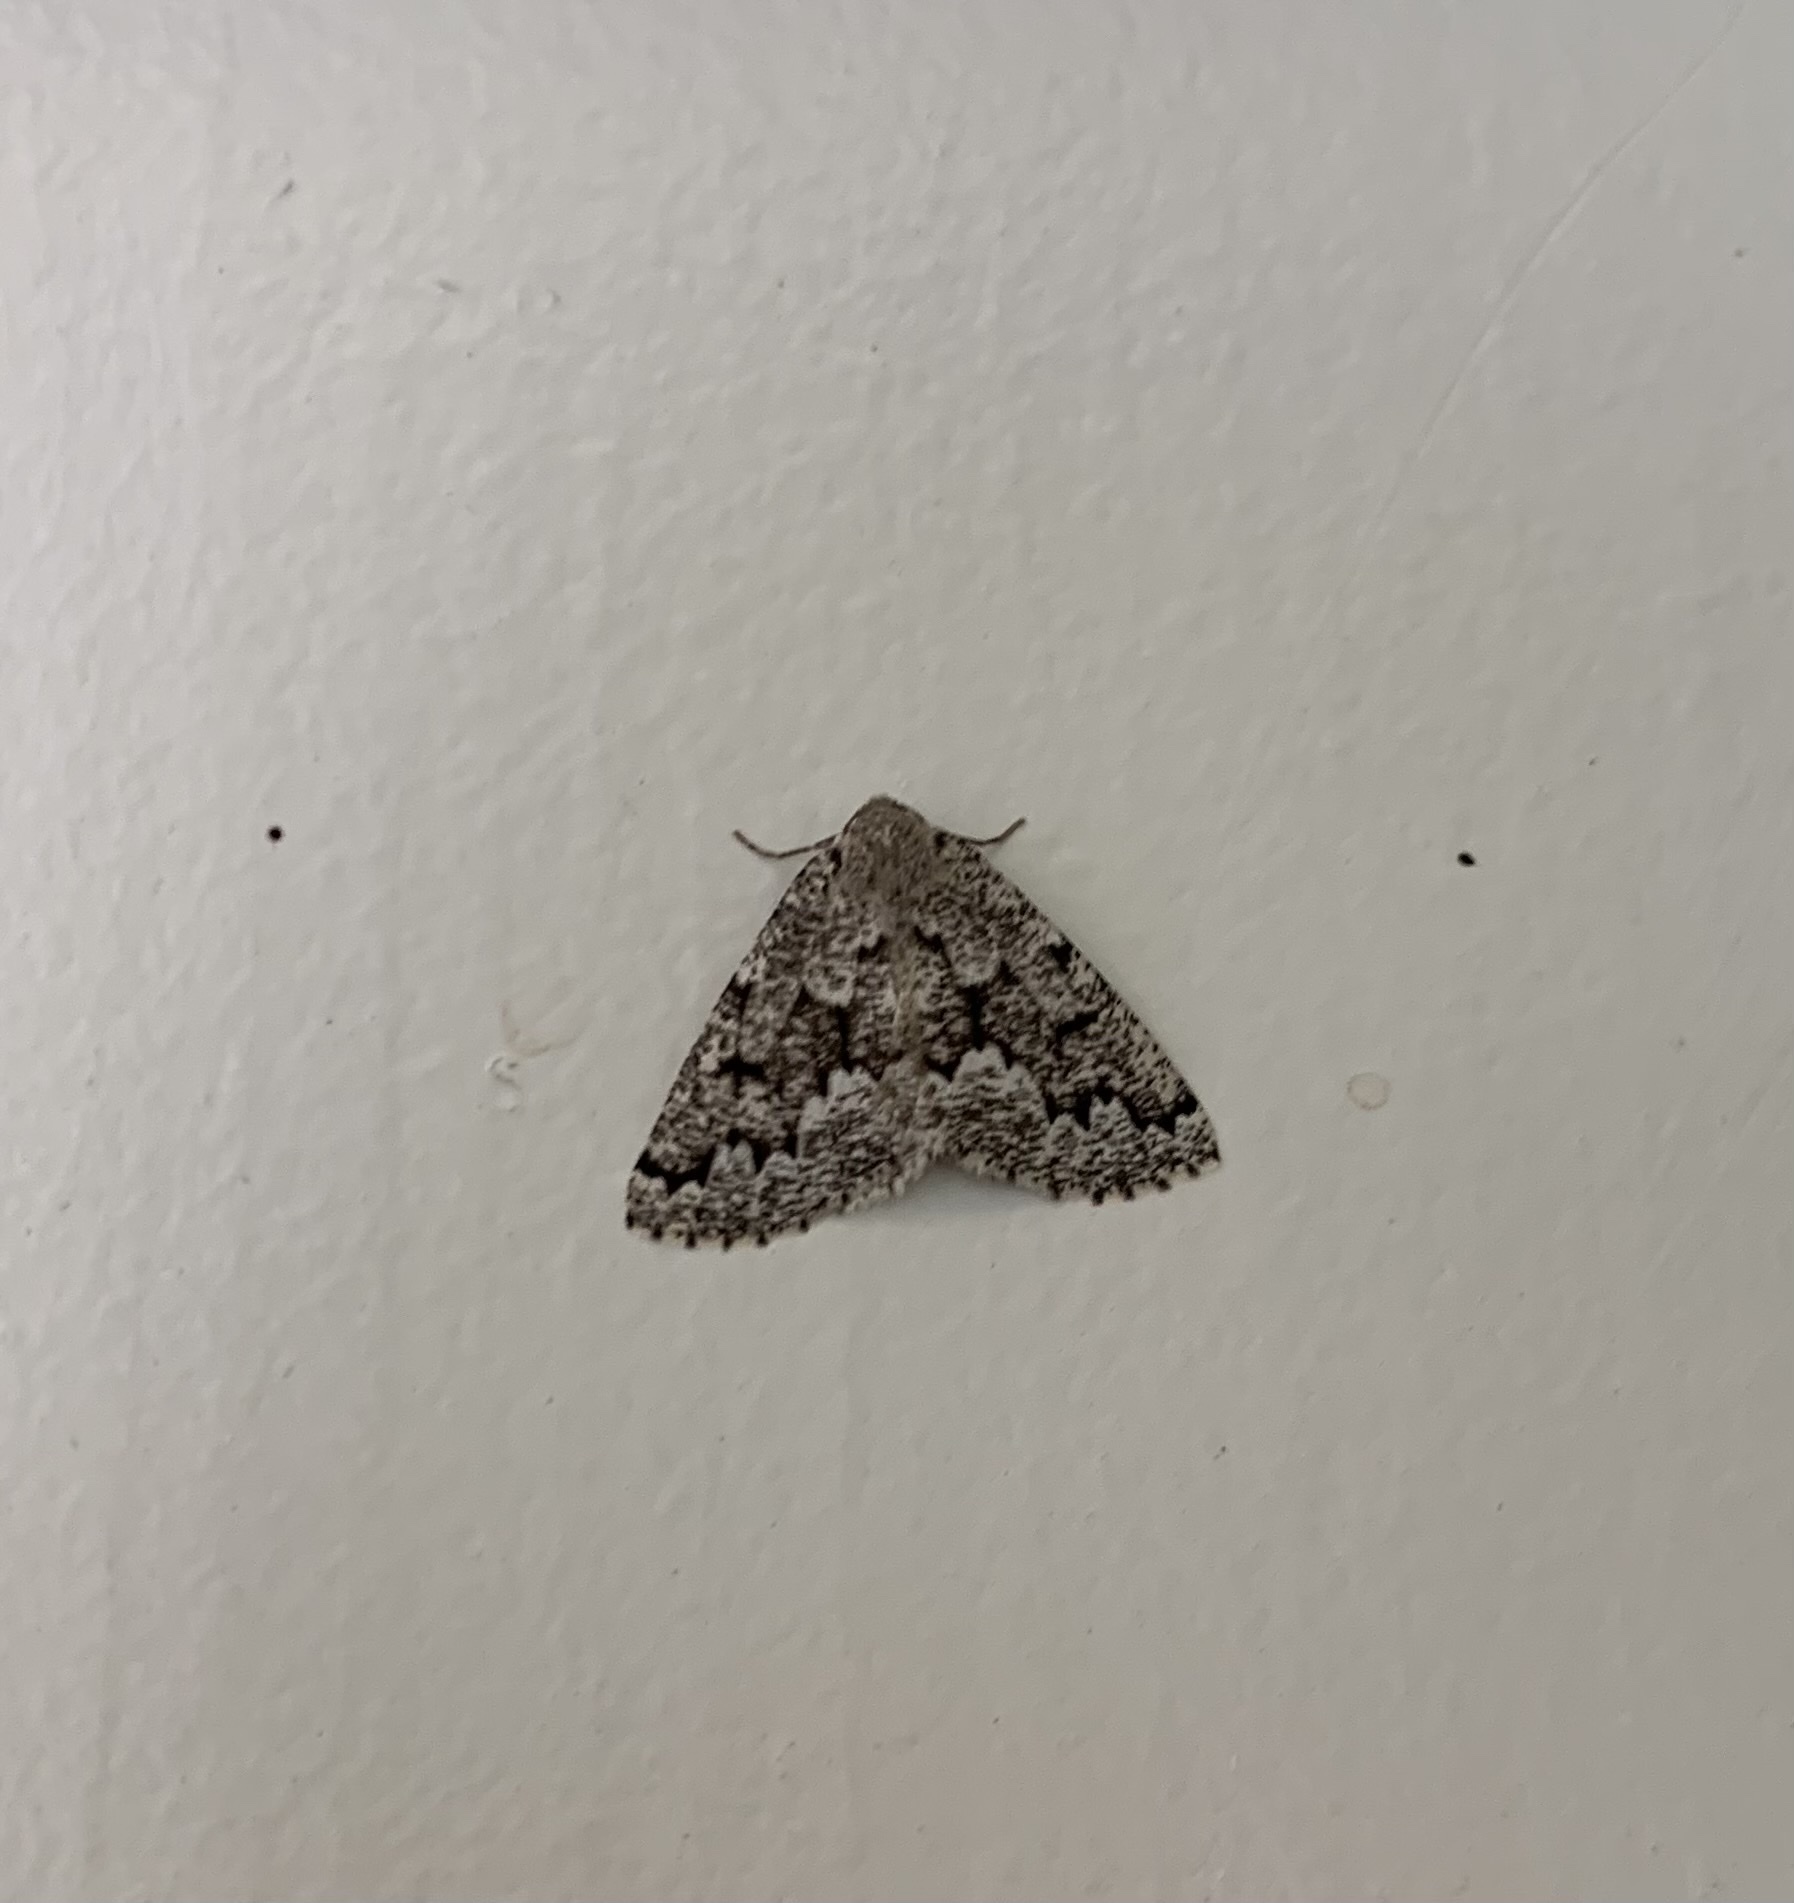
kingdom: Animalia
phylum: Arthropoda
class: Insecta
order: Lepidoptera
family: Geometridae
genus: Sabulodes
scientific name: Sabulodes
